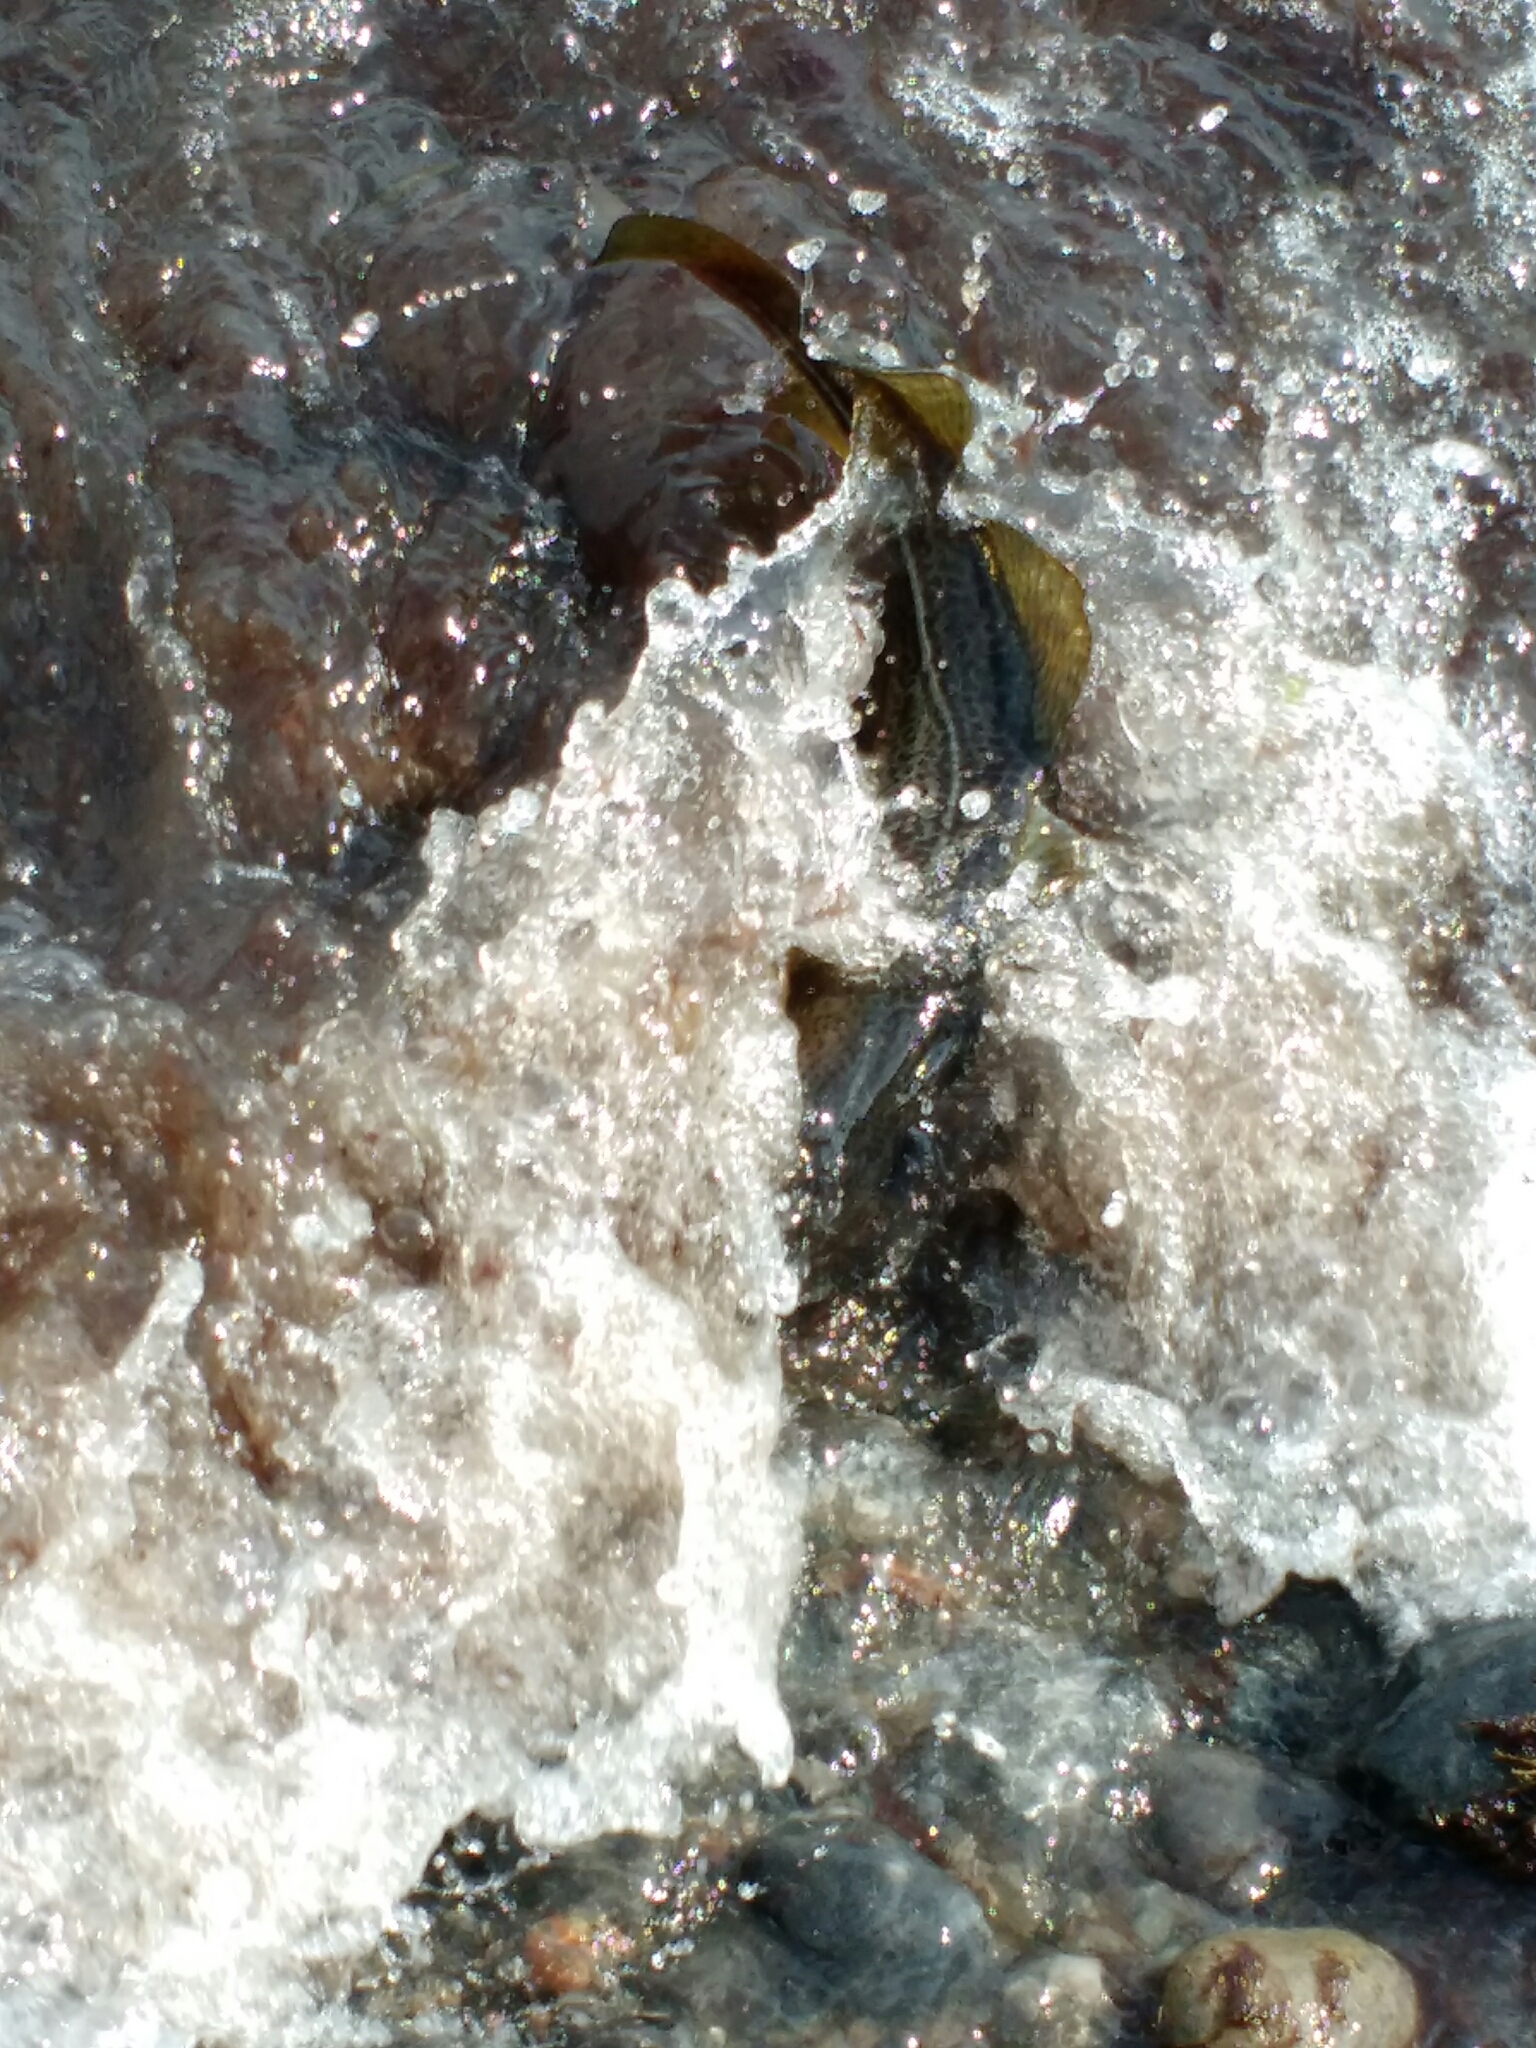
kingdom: Animalia
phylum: Chordata
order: Gadiformes
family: Gadidae
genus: Gadus
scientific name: Gadus morhua
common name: Atlantic cod
